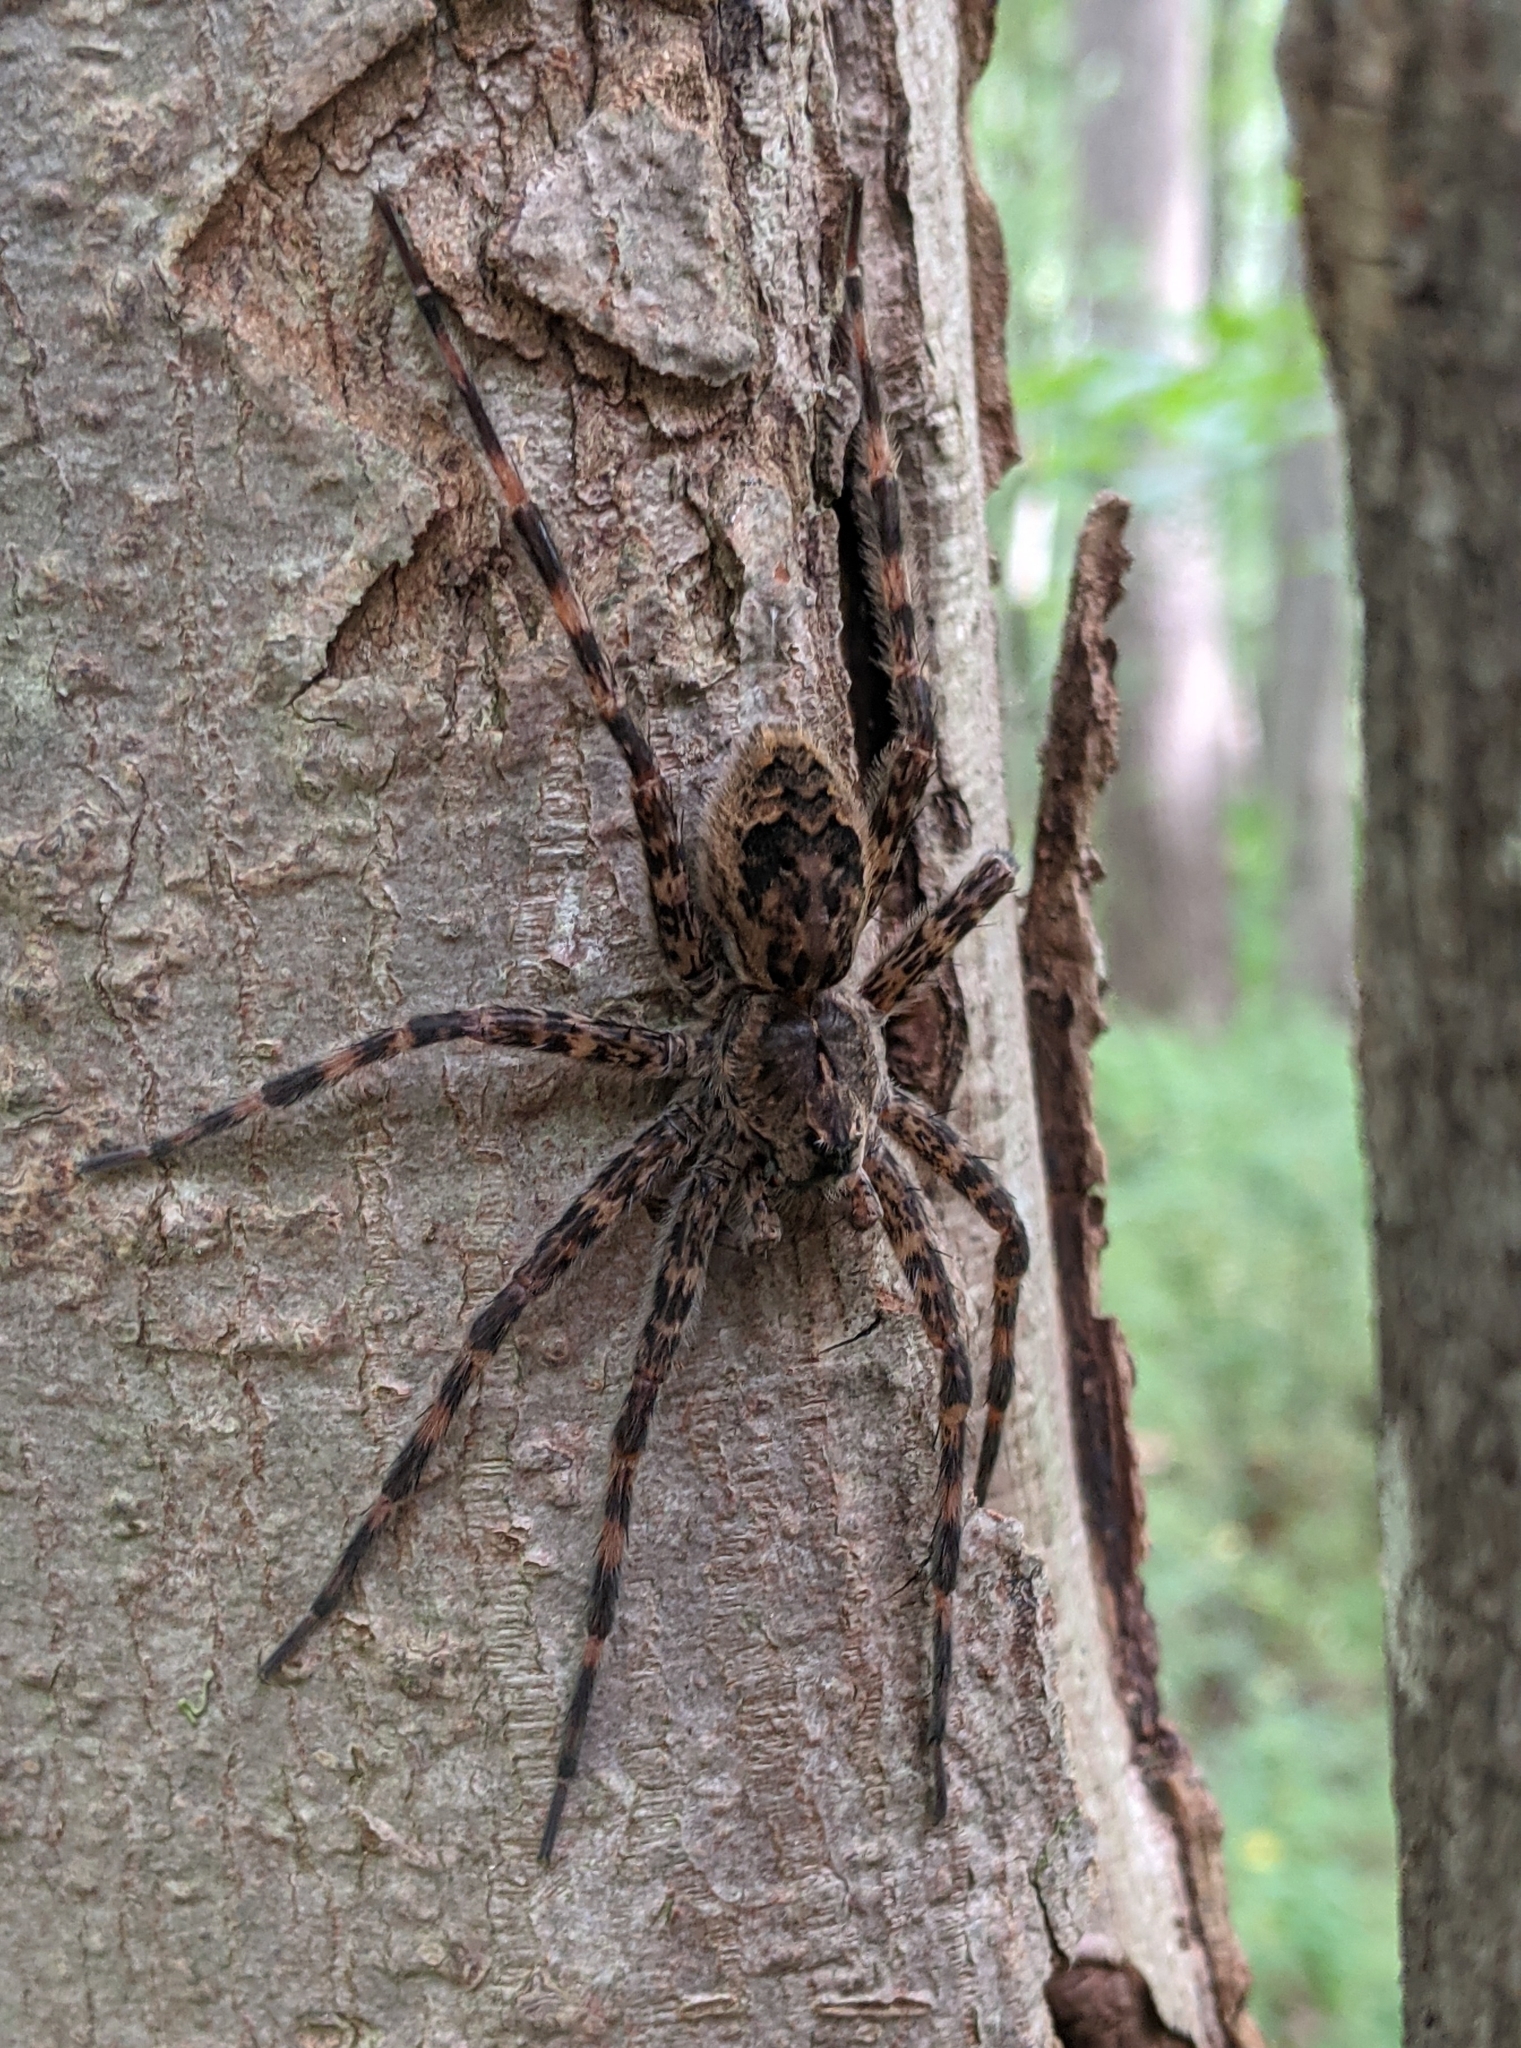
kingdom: Animalia
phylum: Arthropoda
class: Arachnida
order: Araneae
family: Pisauridae
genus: Dolomedes
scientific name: Dolomedes tenebrosus
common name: Dark fishing spider
